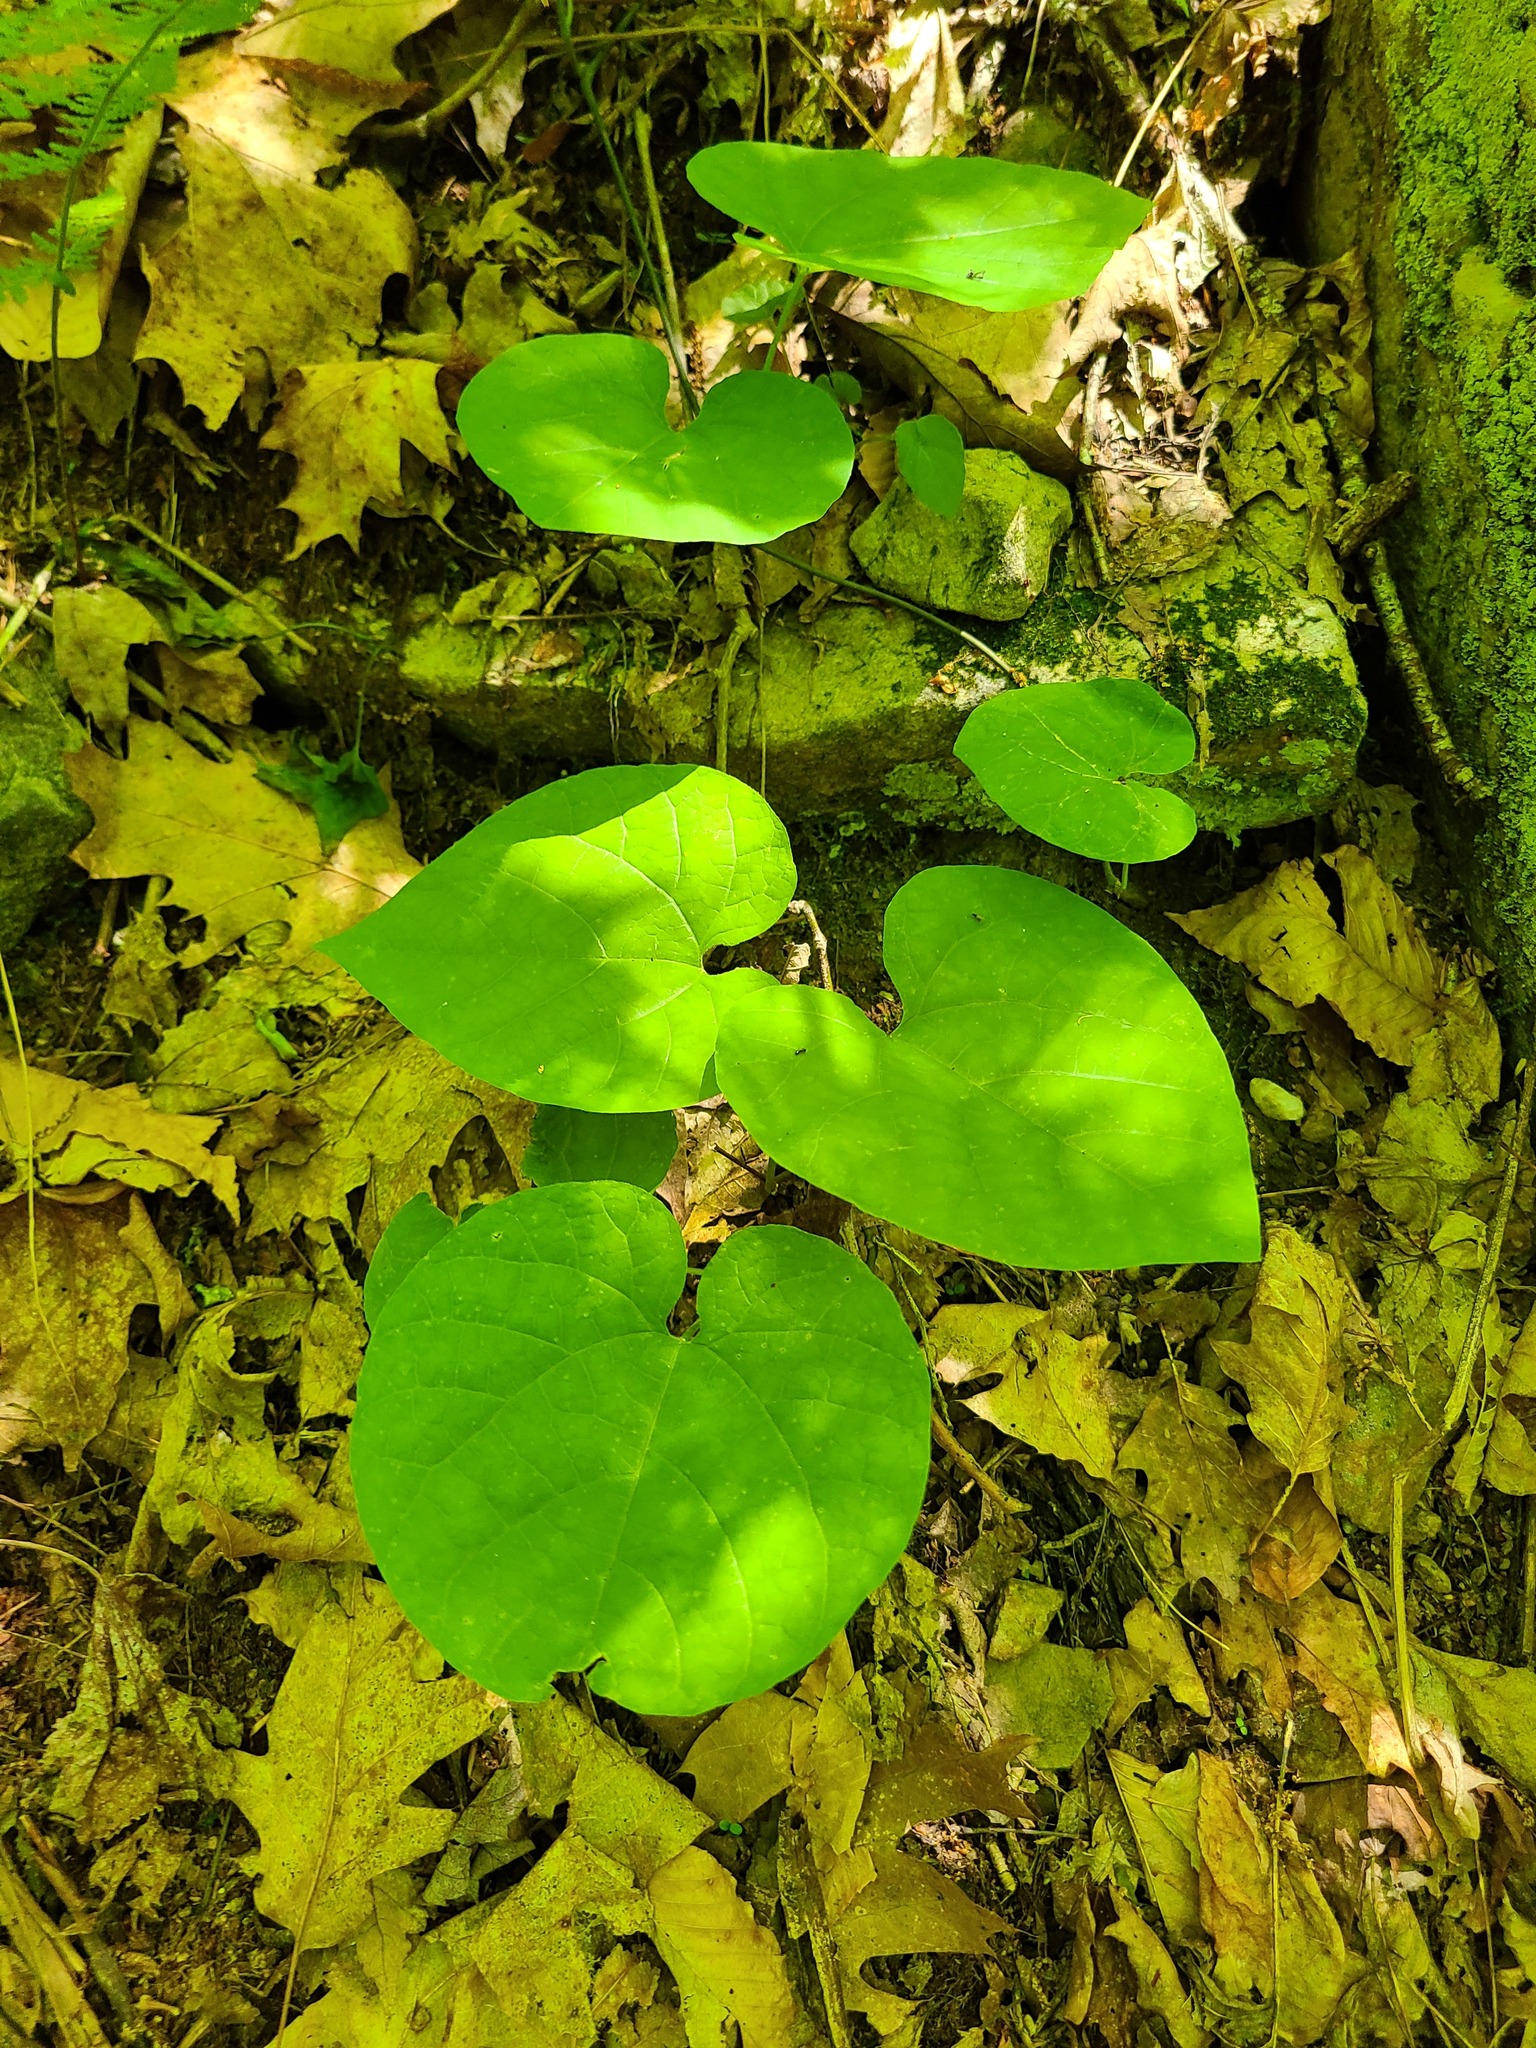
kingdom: Plantae
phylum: Tracheophyta
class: Magnoliopsida
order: Piperales
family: Aristolochiaceae
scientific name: Aristolochiaceae
